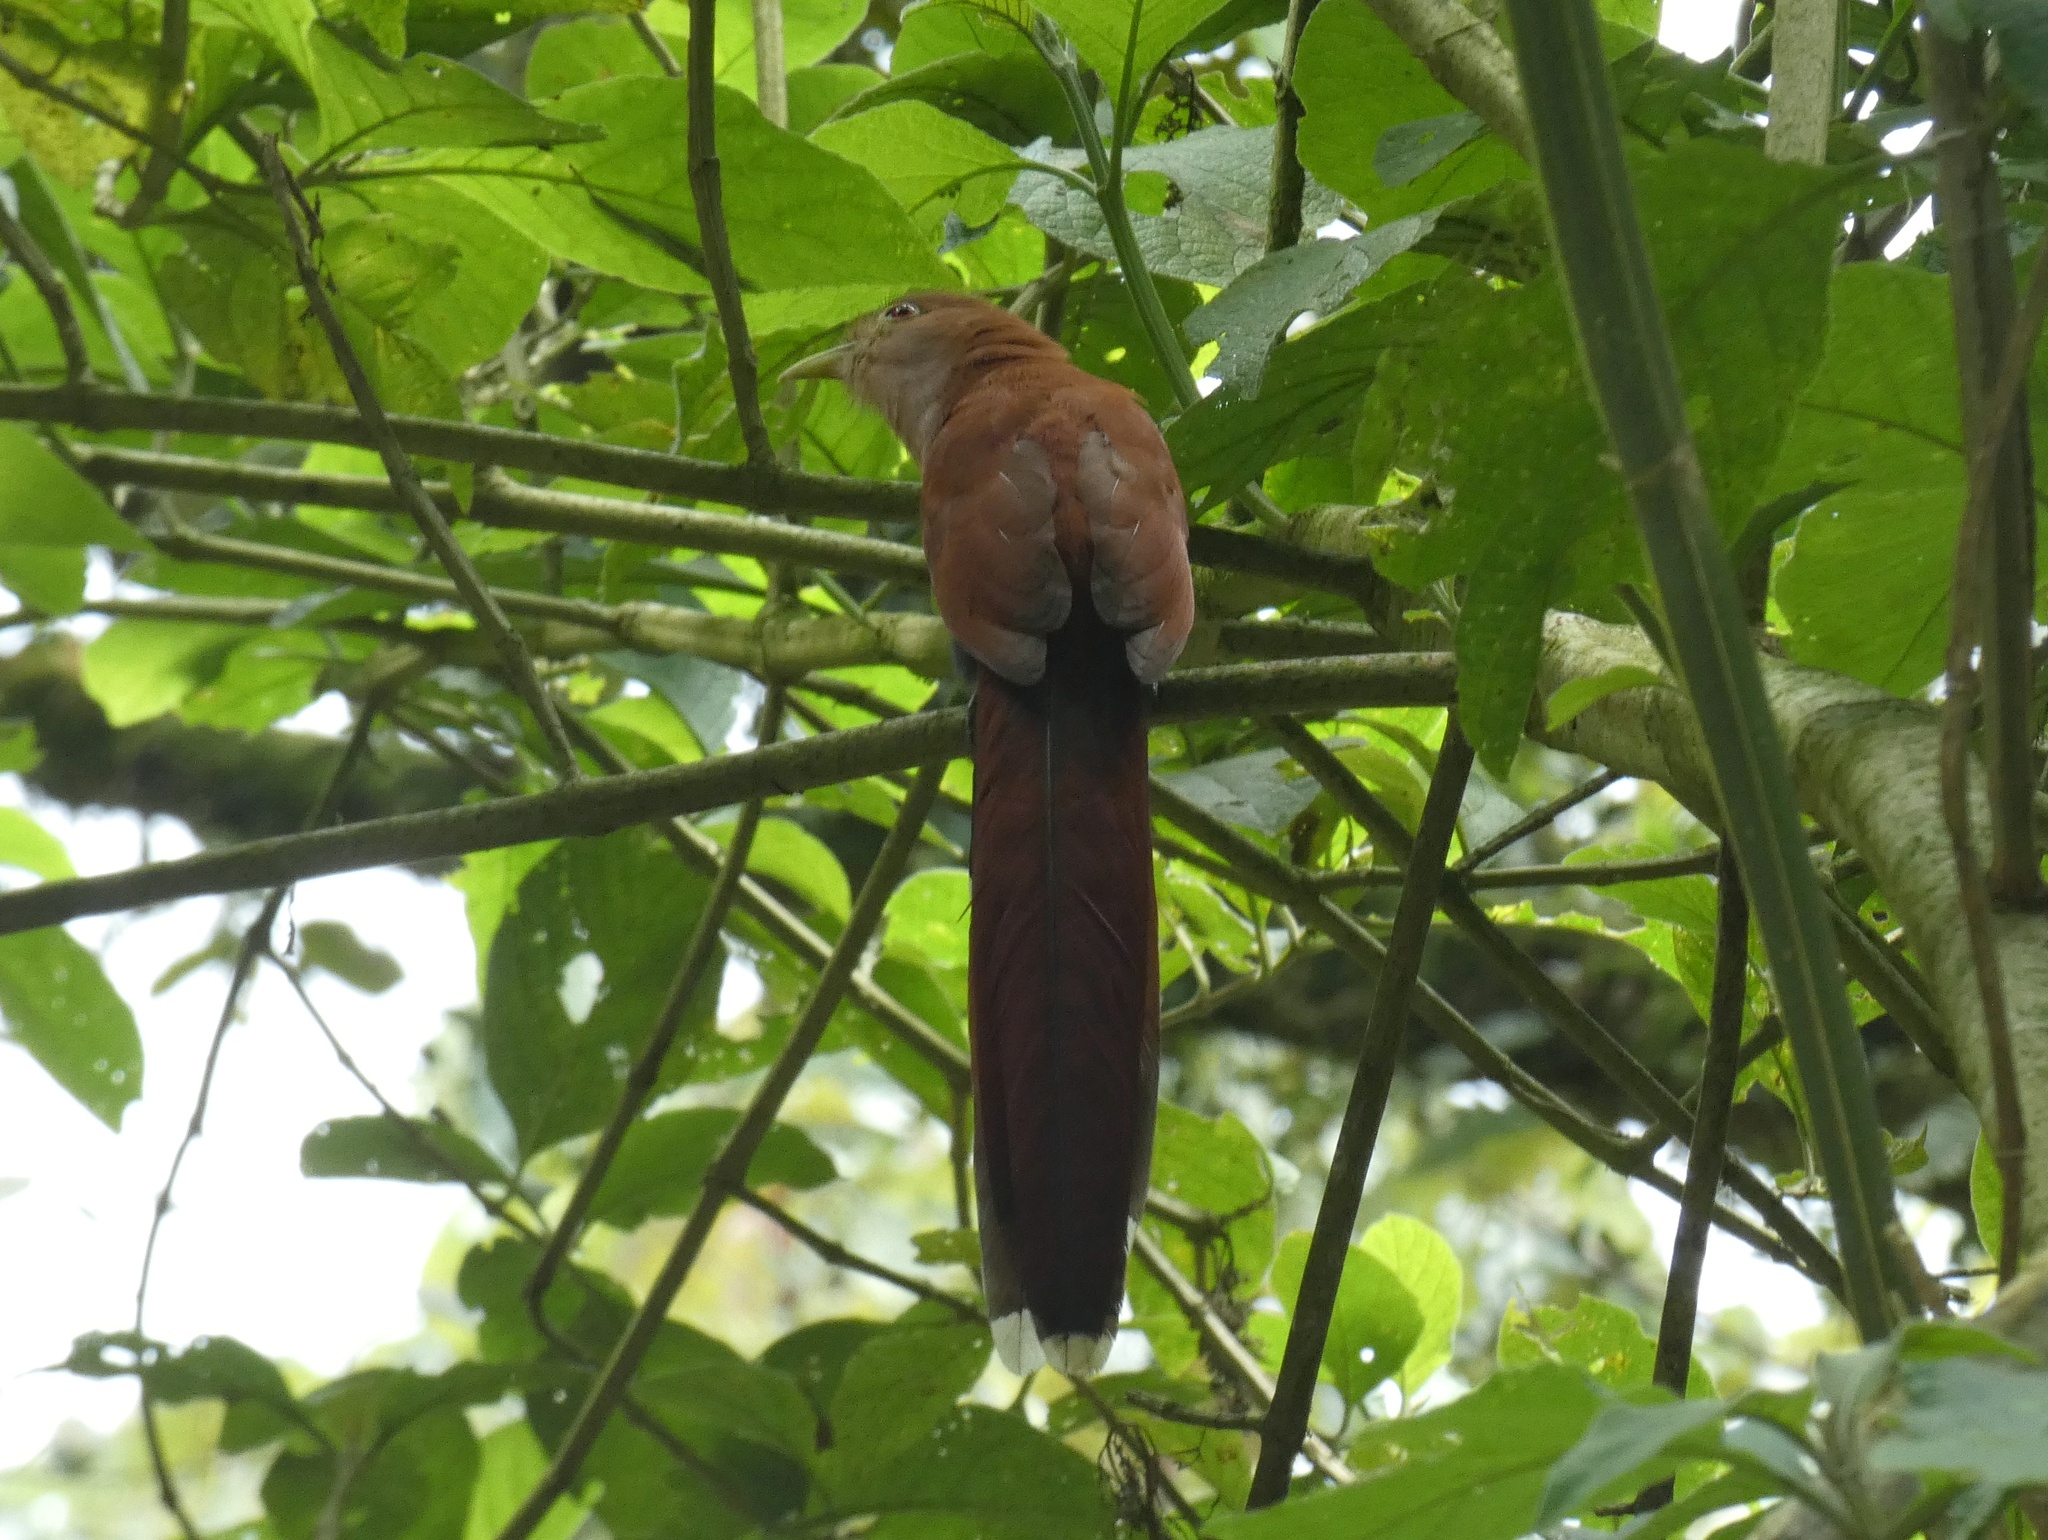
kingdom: Animalia
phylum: Chordata
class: Aves
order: Cuculiformes
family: Cuculidae
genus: Piaya
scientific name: Piaya cayana
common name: Squirrel cuckoo
